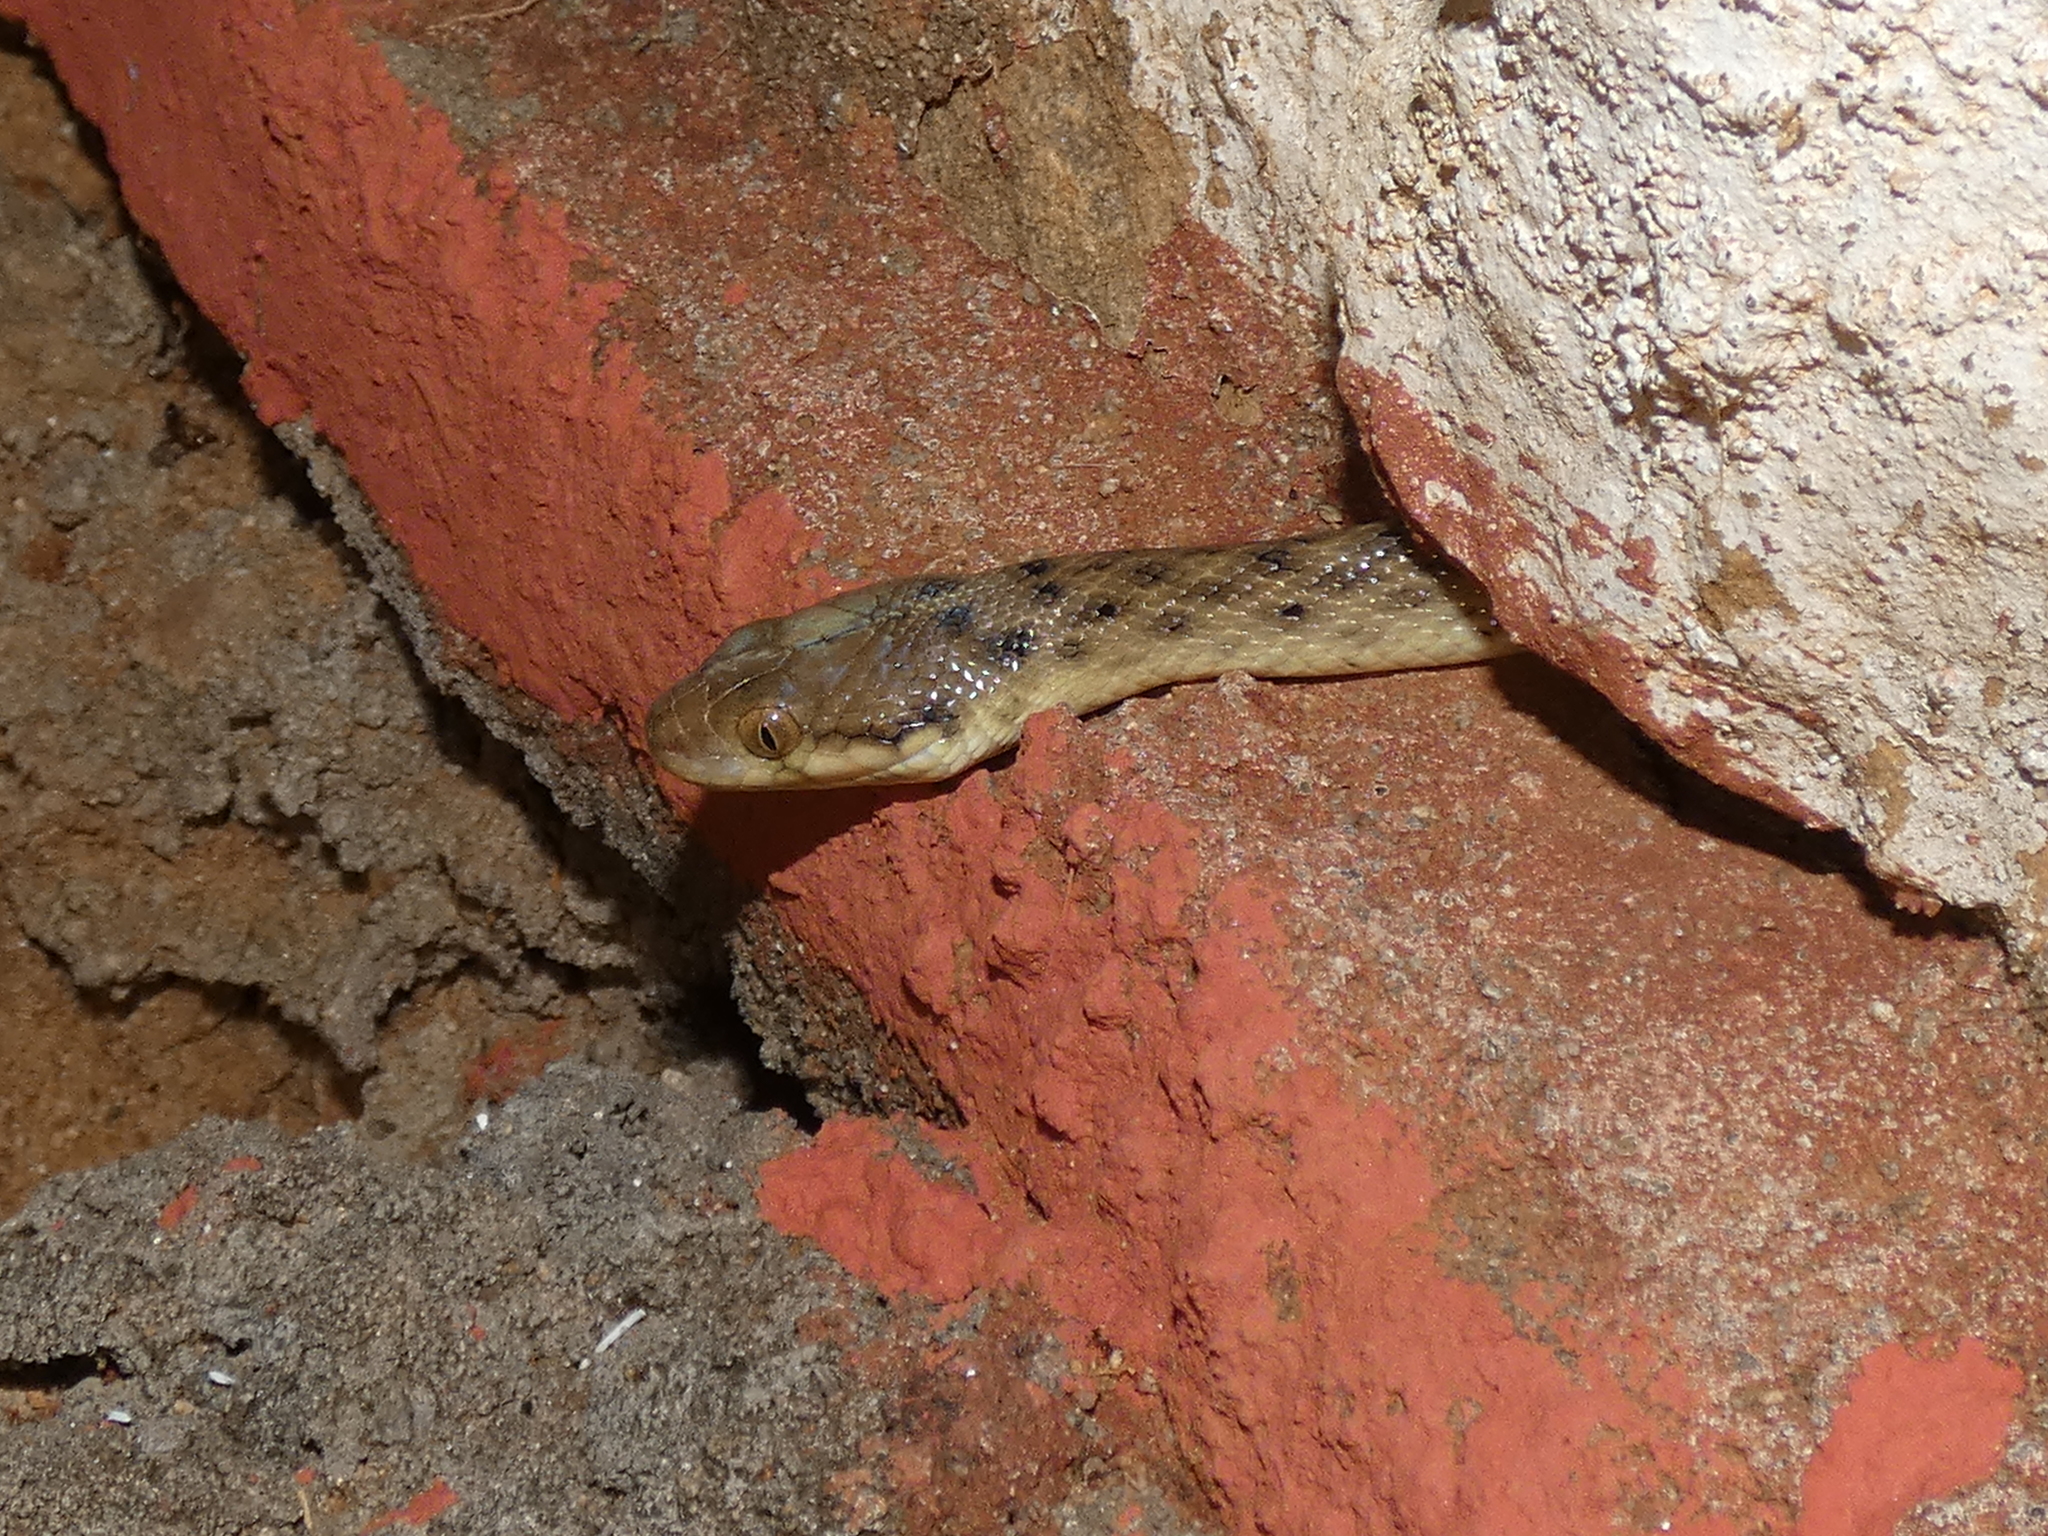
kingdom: Animalia
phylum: Chordata
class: Squamata
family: Pseudoxyrhophiidae
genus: Madagascarophis
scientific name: Madagascarophis colubrinus
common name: Madagascar night snake
